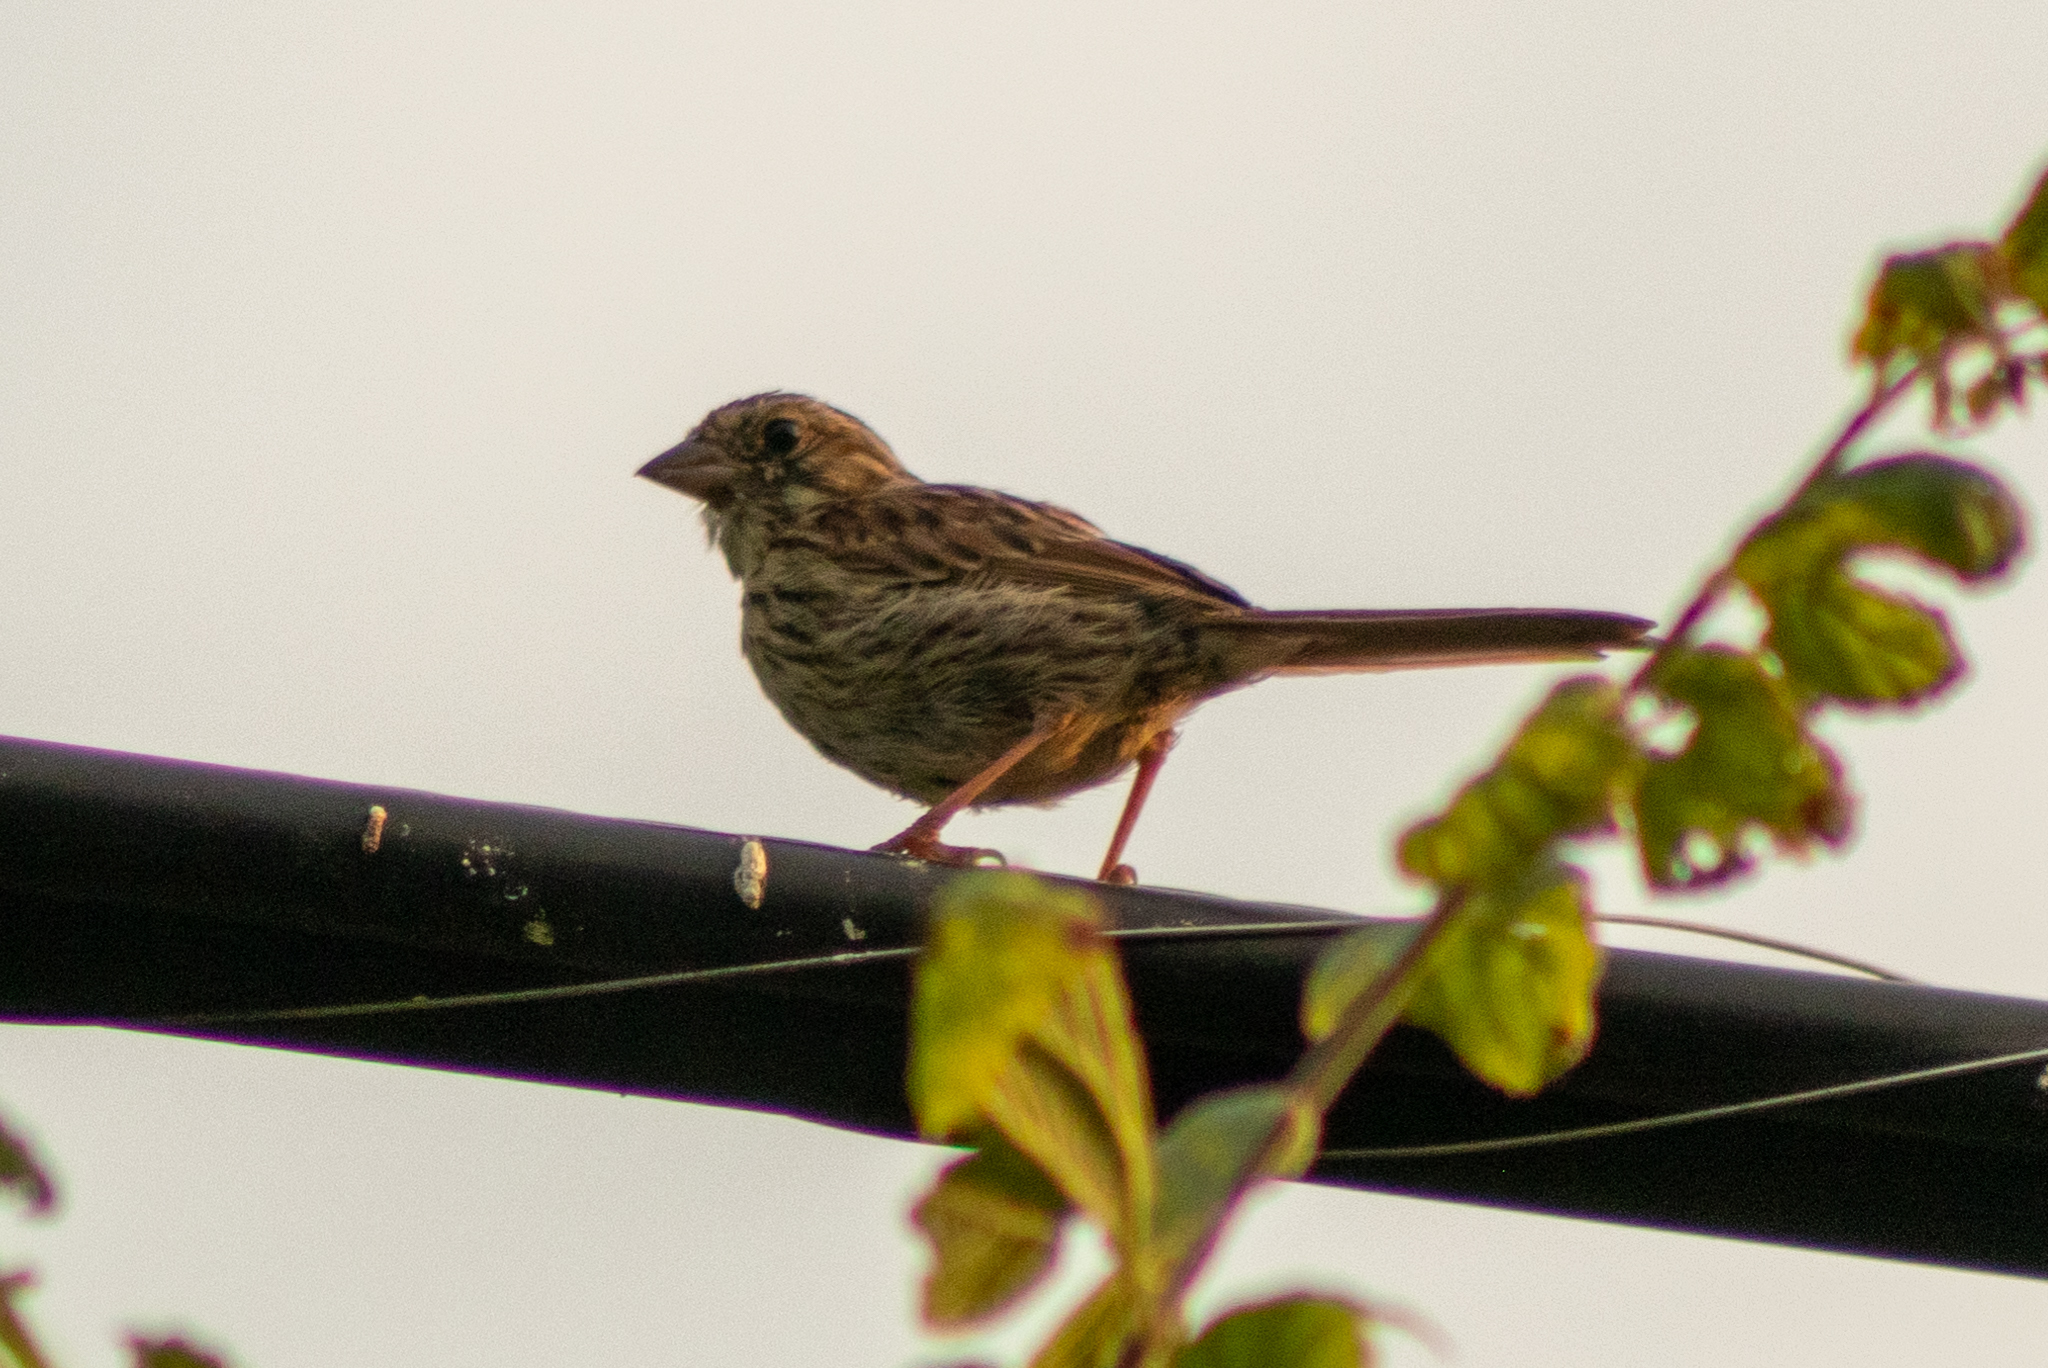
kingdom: Animalia
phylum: Chordata
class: Aves
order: Passeriformes
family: Passerellidae
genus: Melospiza
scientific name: Melospiza melodia
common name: Song sparrow
